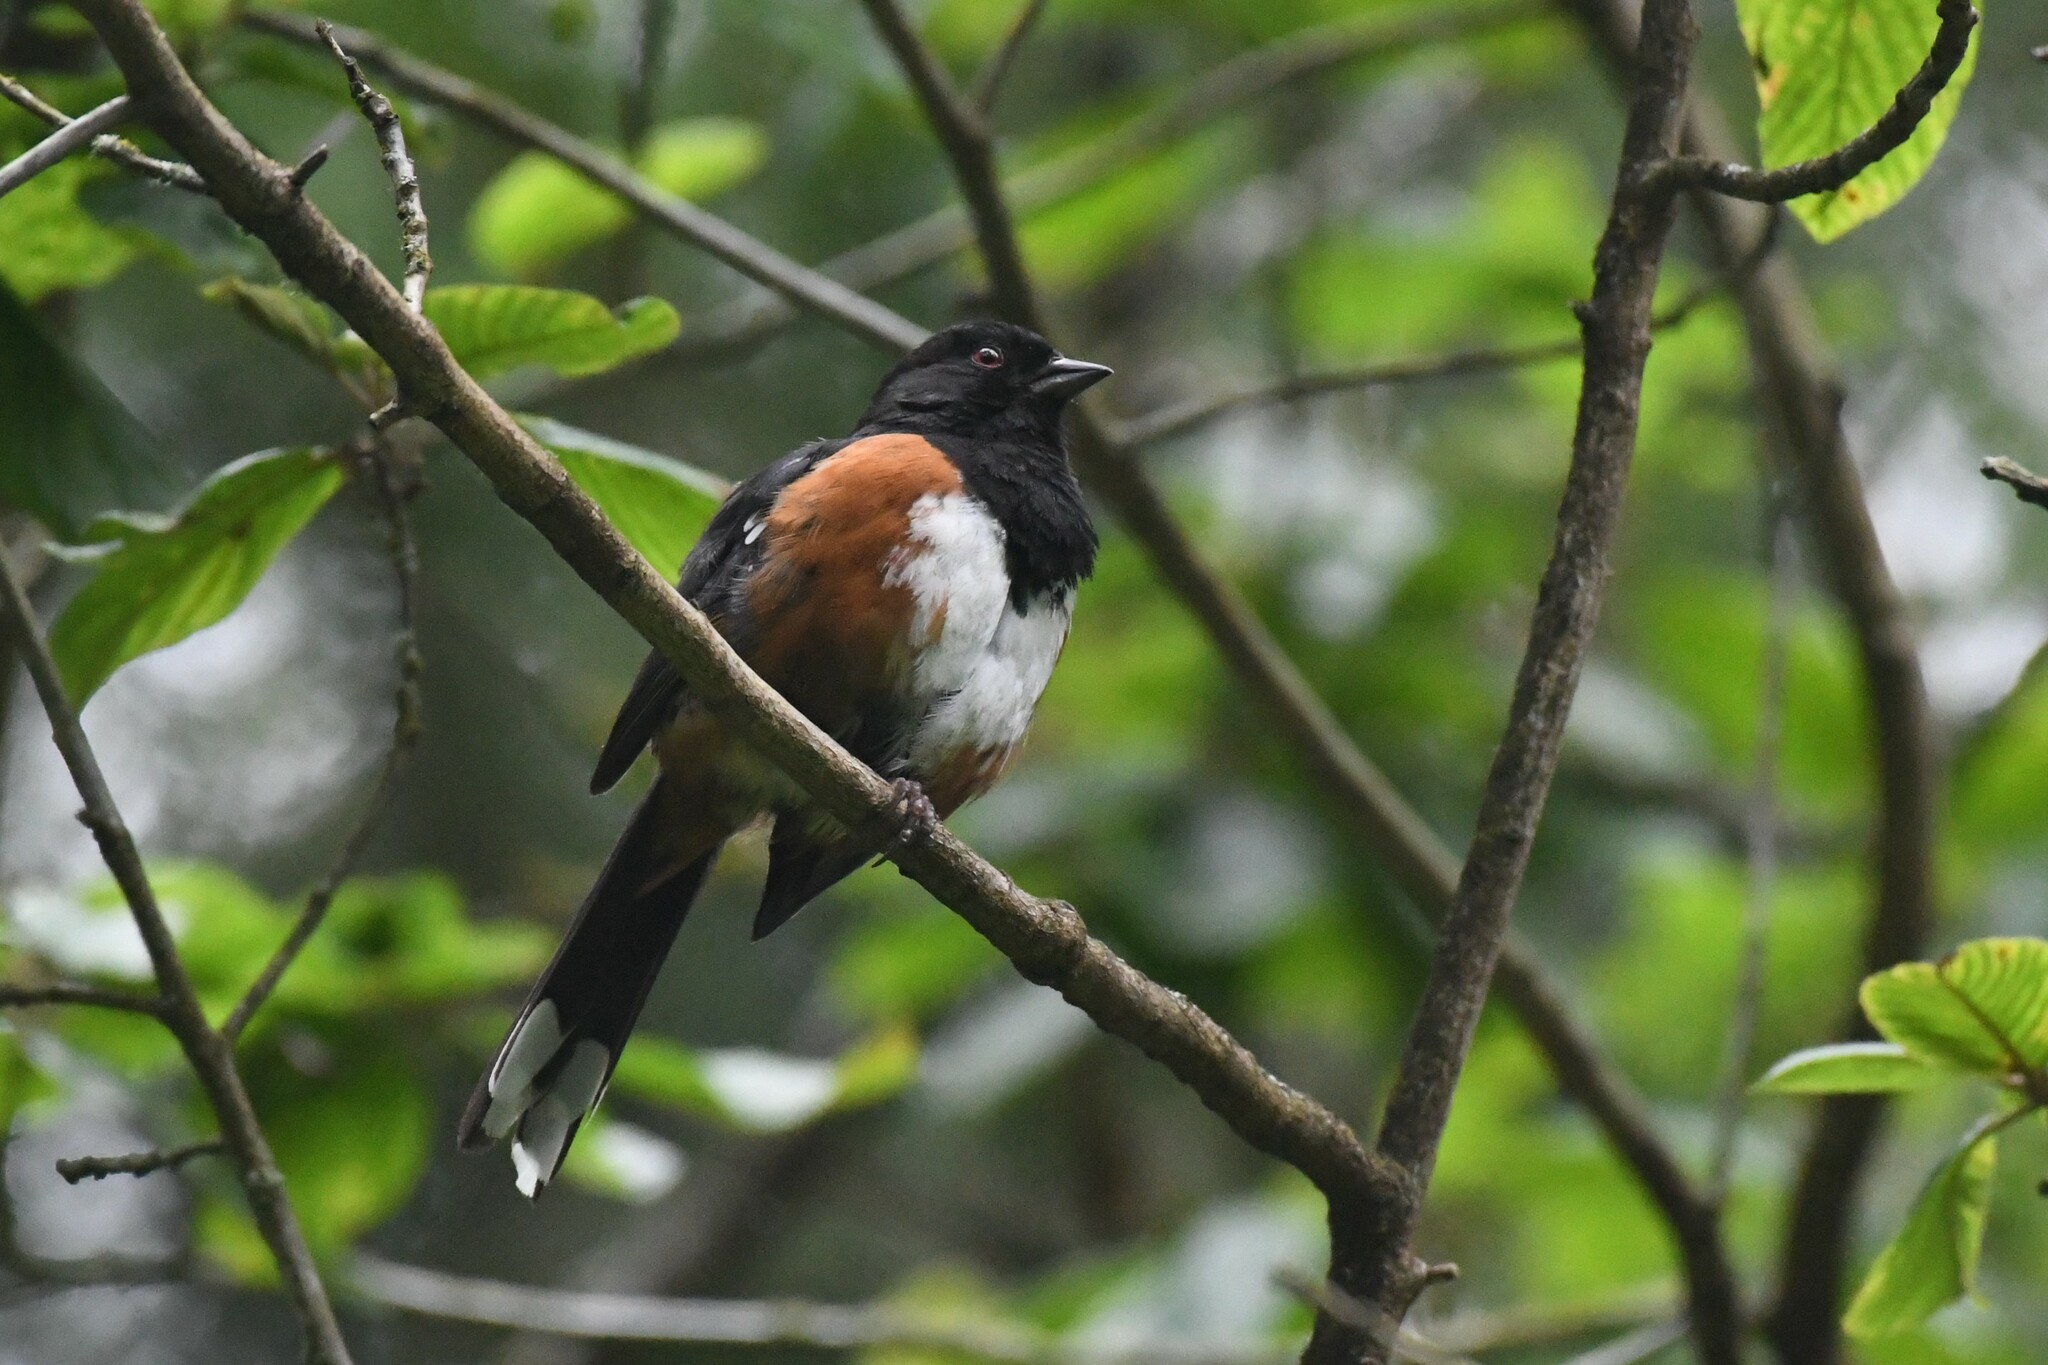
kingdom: Animalia
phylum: Chordata
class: Aves
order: Passeriformes
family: Passerellidae
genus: Pipilo
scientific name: Pipilo maculatus
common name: Spotted towhee
